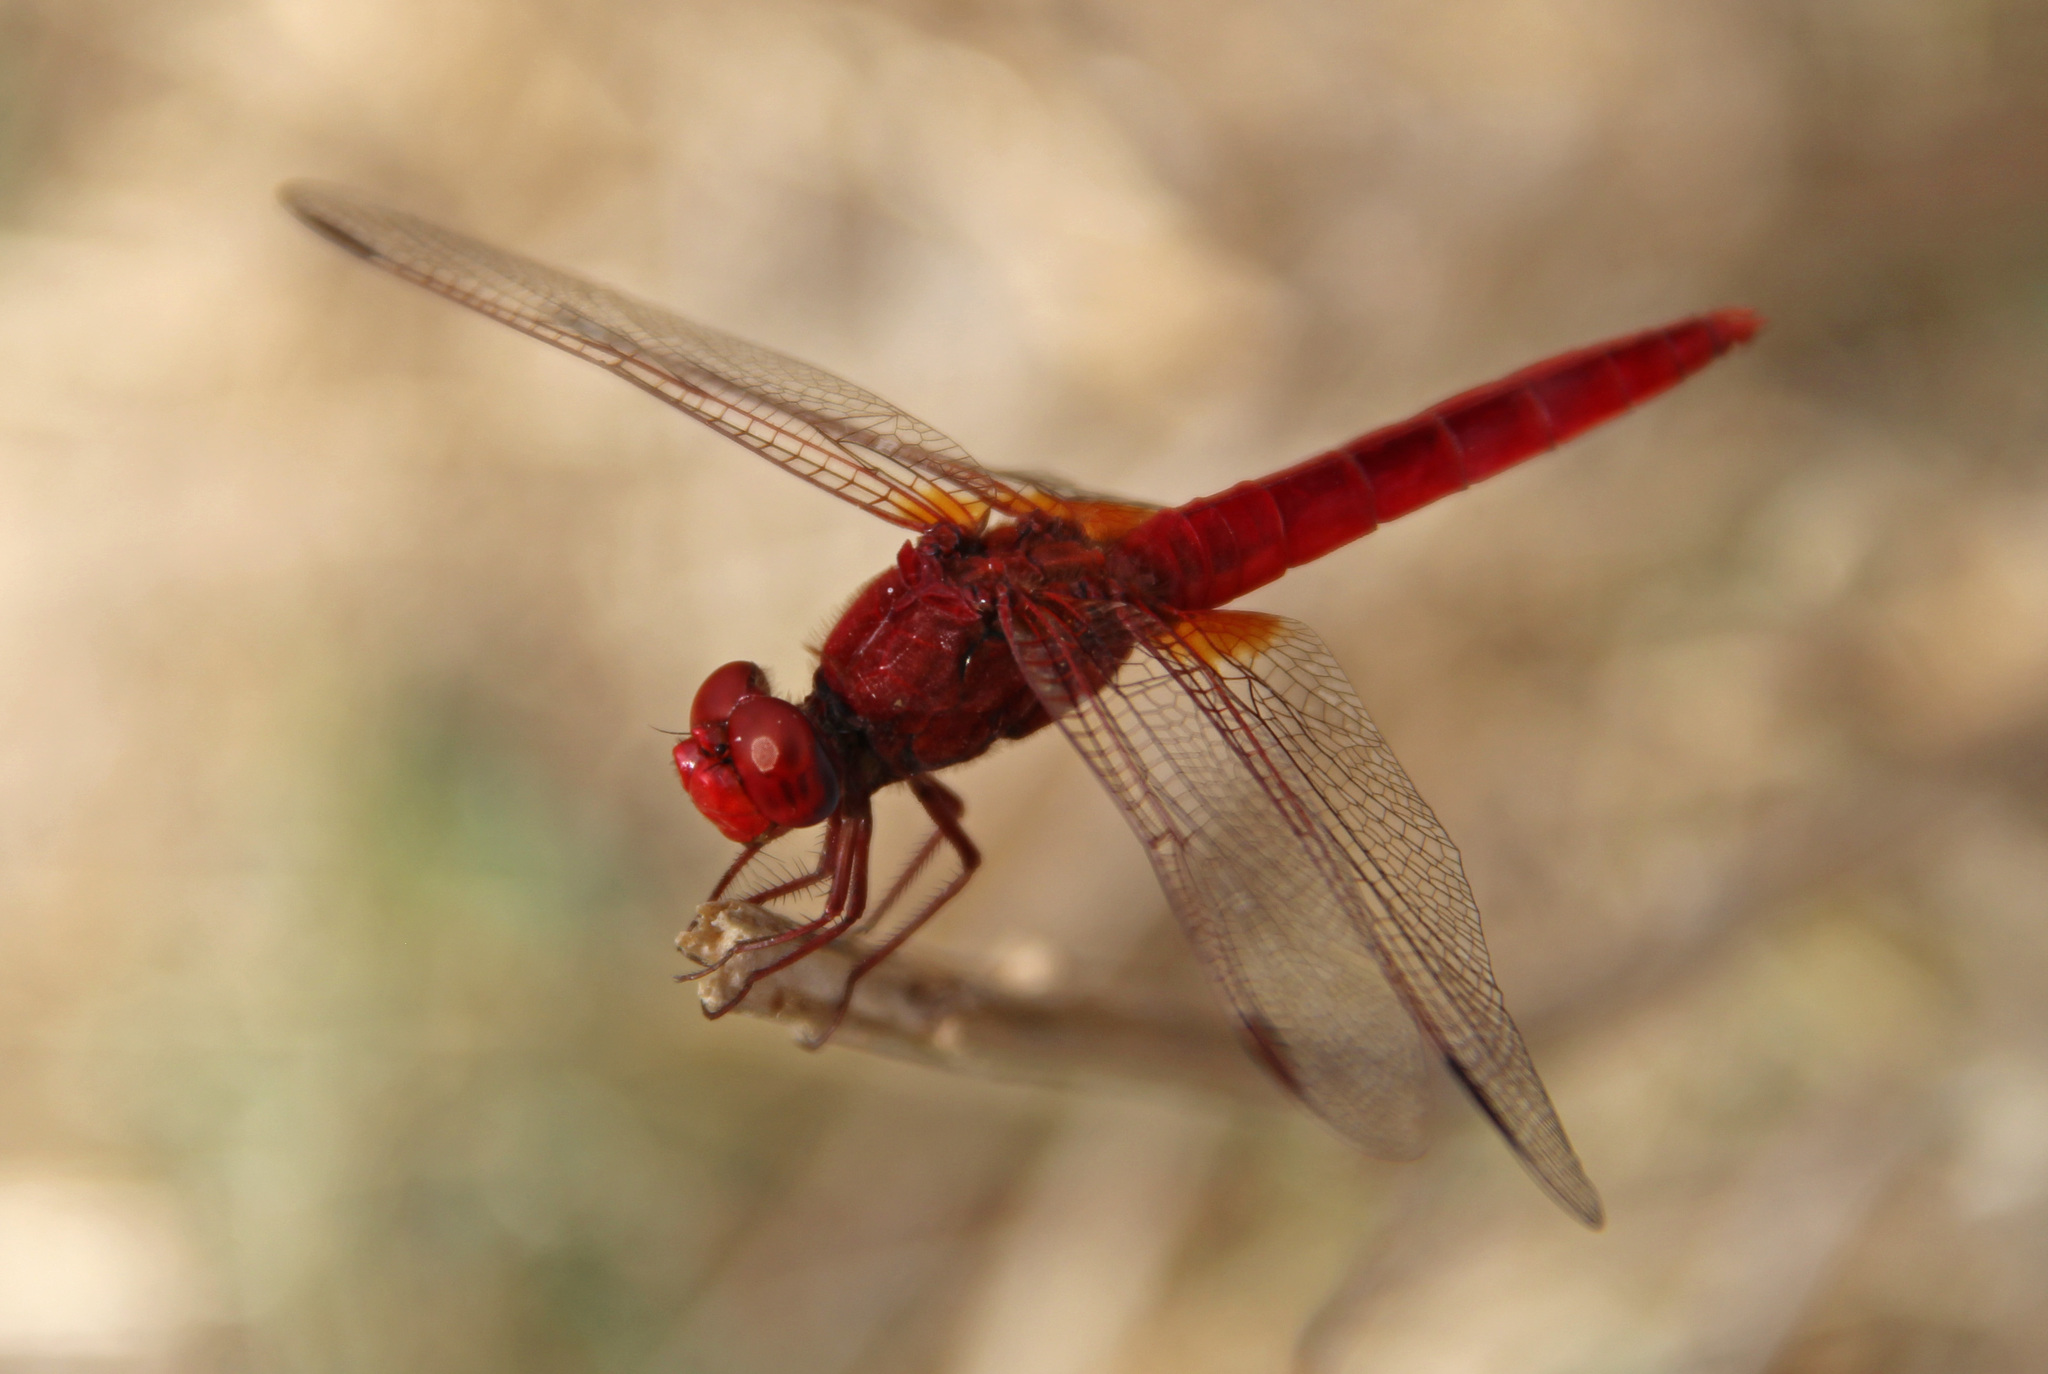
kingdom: Animalia
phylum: Arthropoda
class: Insecta
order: Odonata
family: Libellulidae
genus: Crocothemis
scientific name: Crocothemis erythraea
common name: Scarlet dragonfly
